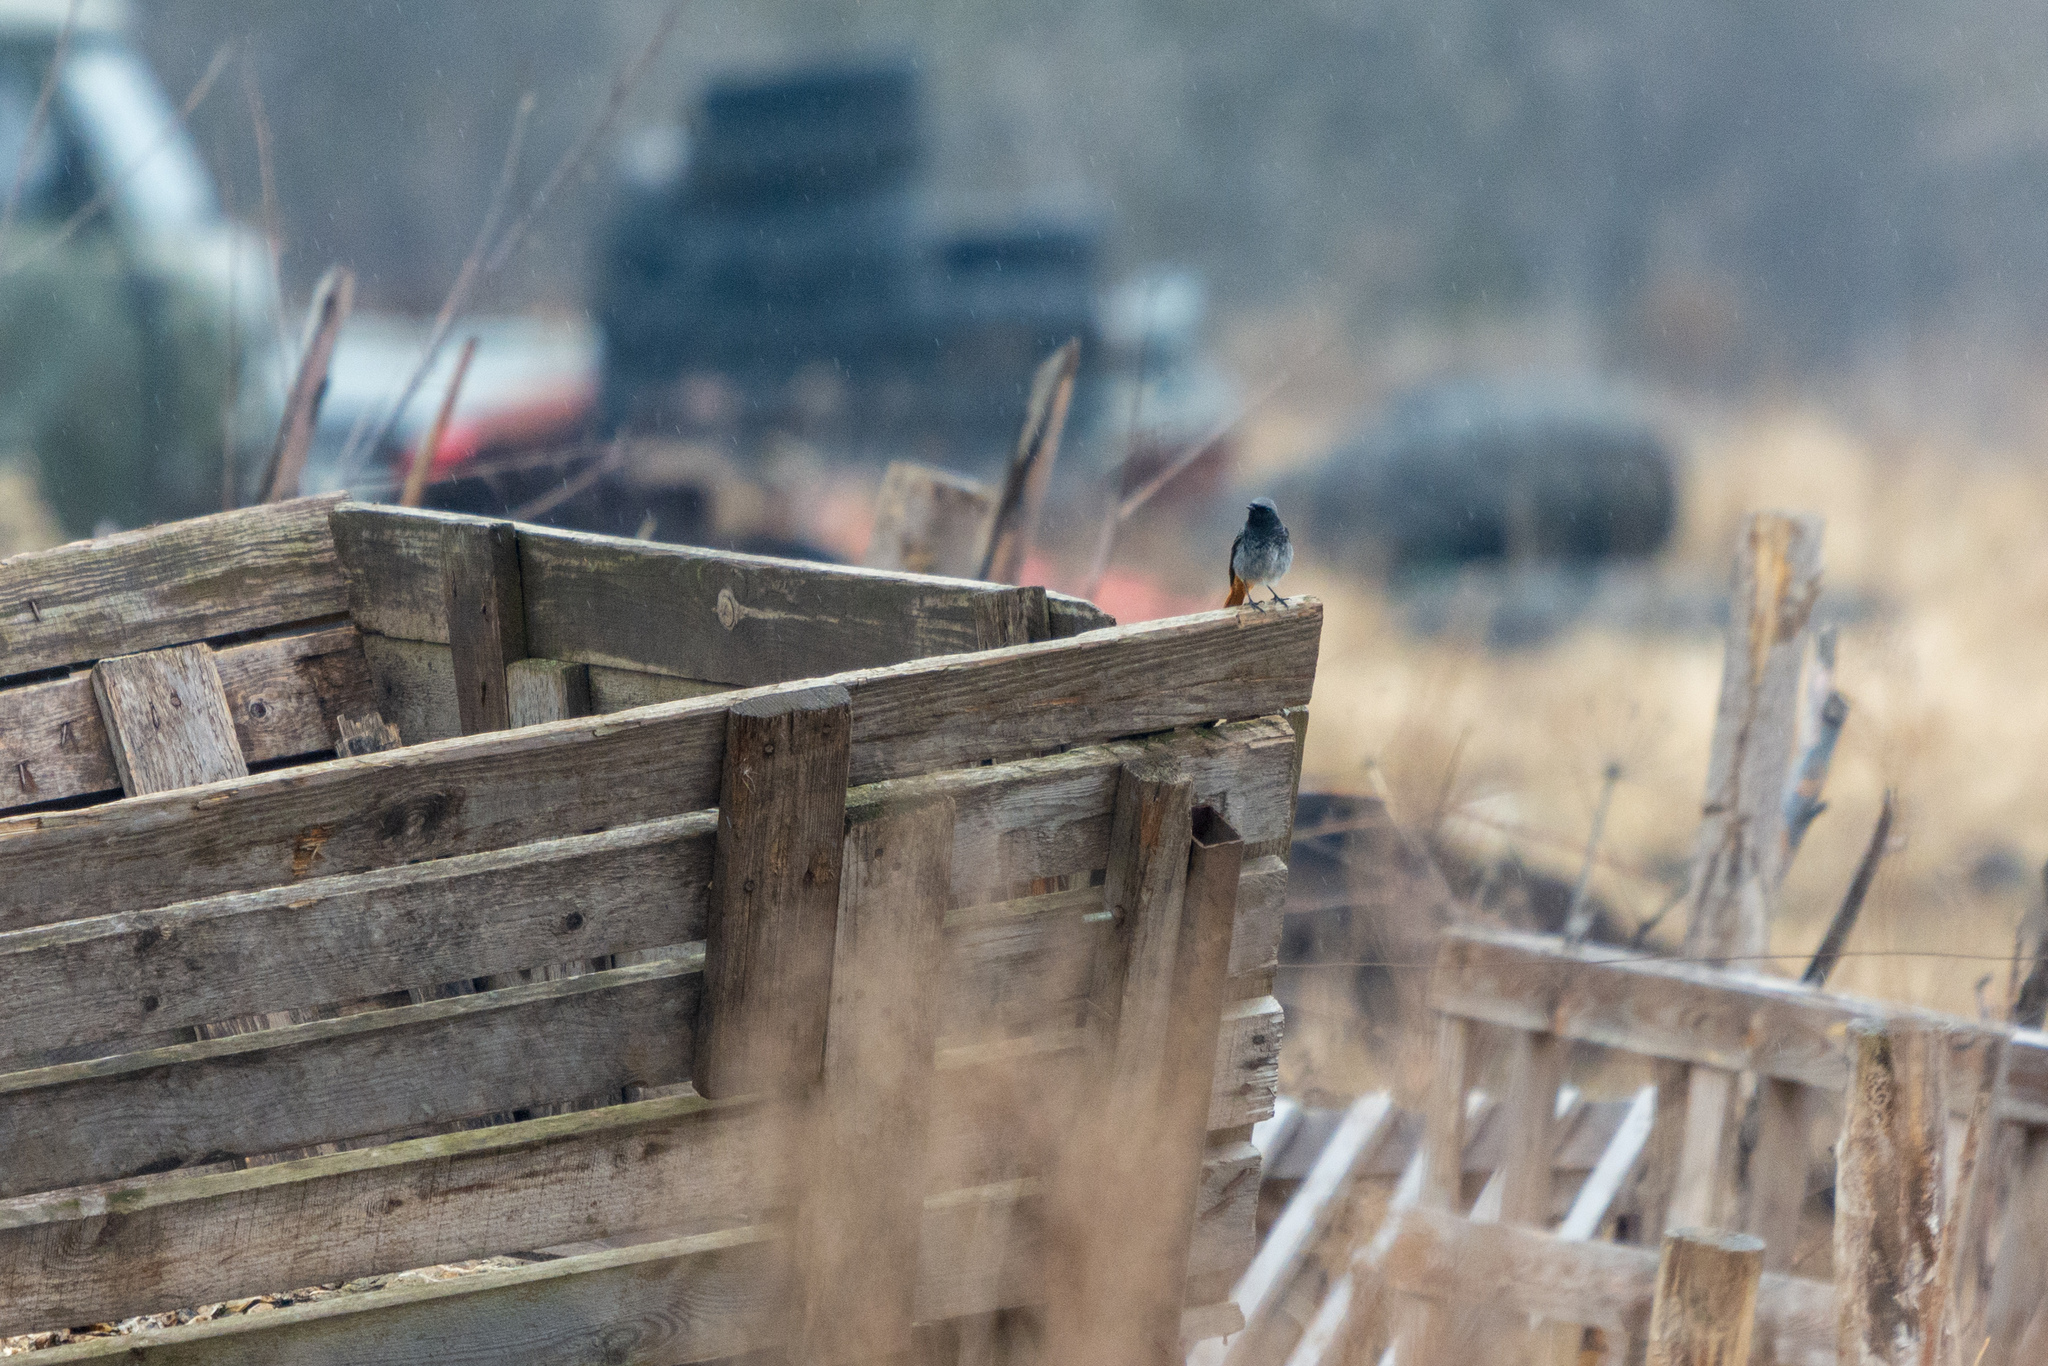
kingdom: Animalia
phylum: Chordata
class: Aves
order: Passeriformes
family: Muscicapidae
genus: Phoenicurus
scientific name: Phoenicurus ochruros
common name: Black redstart
